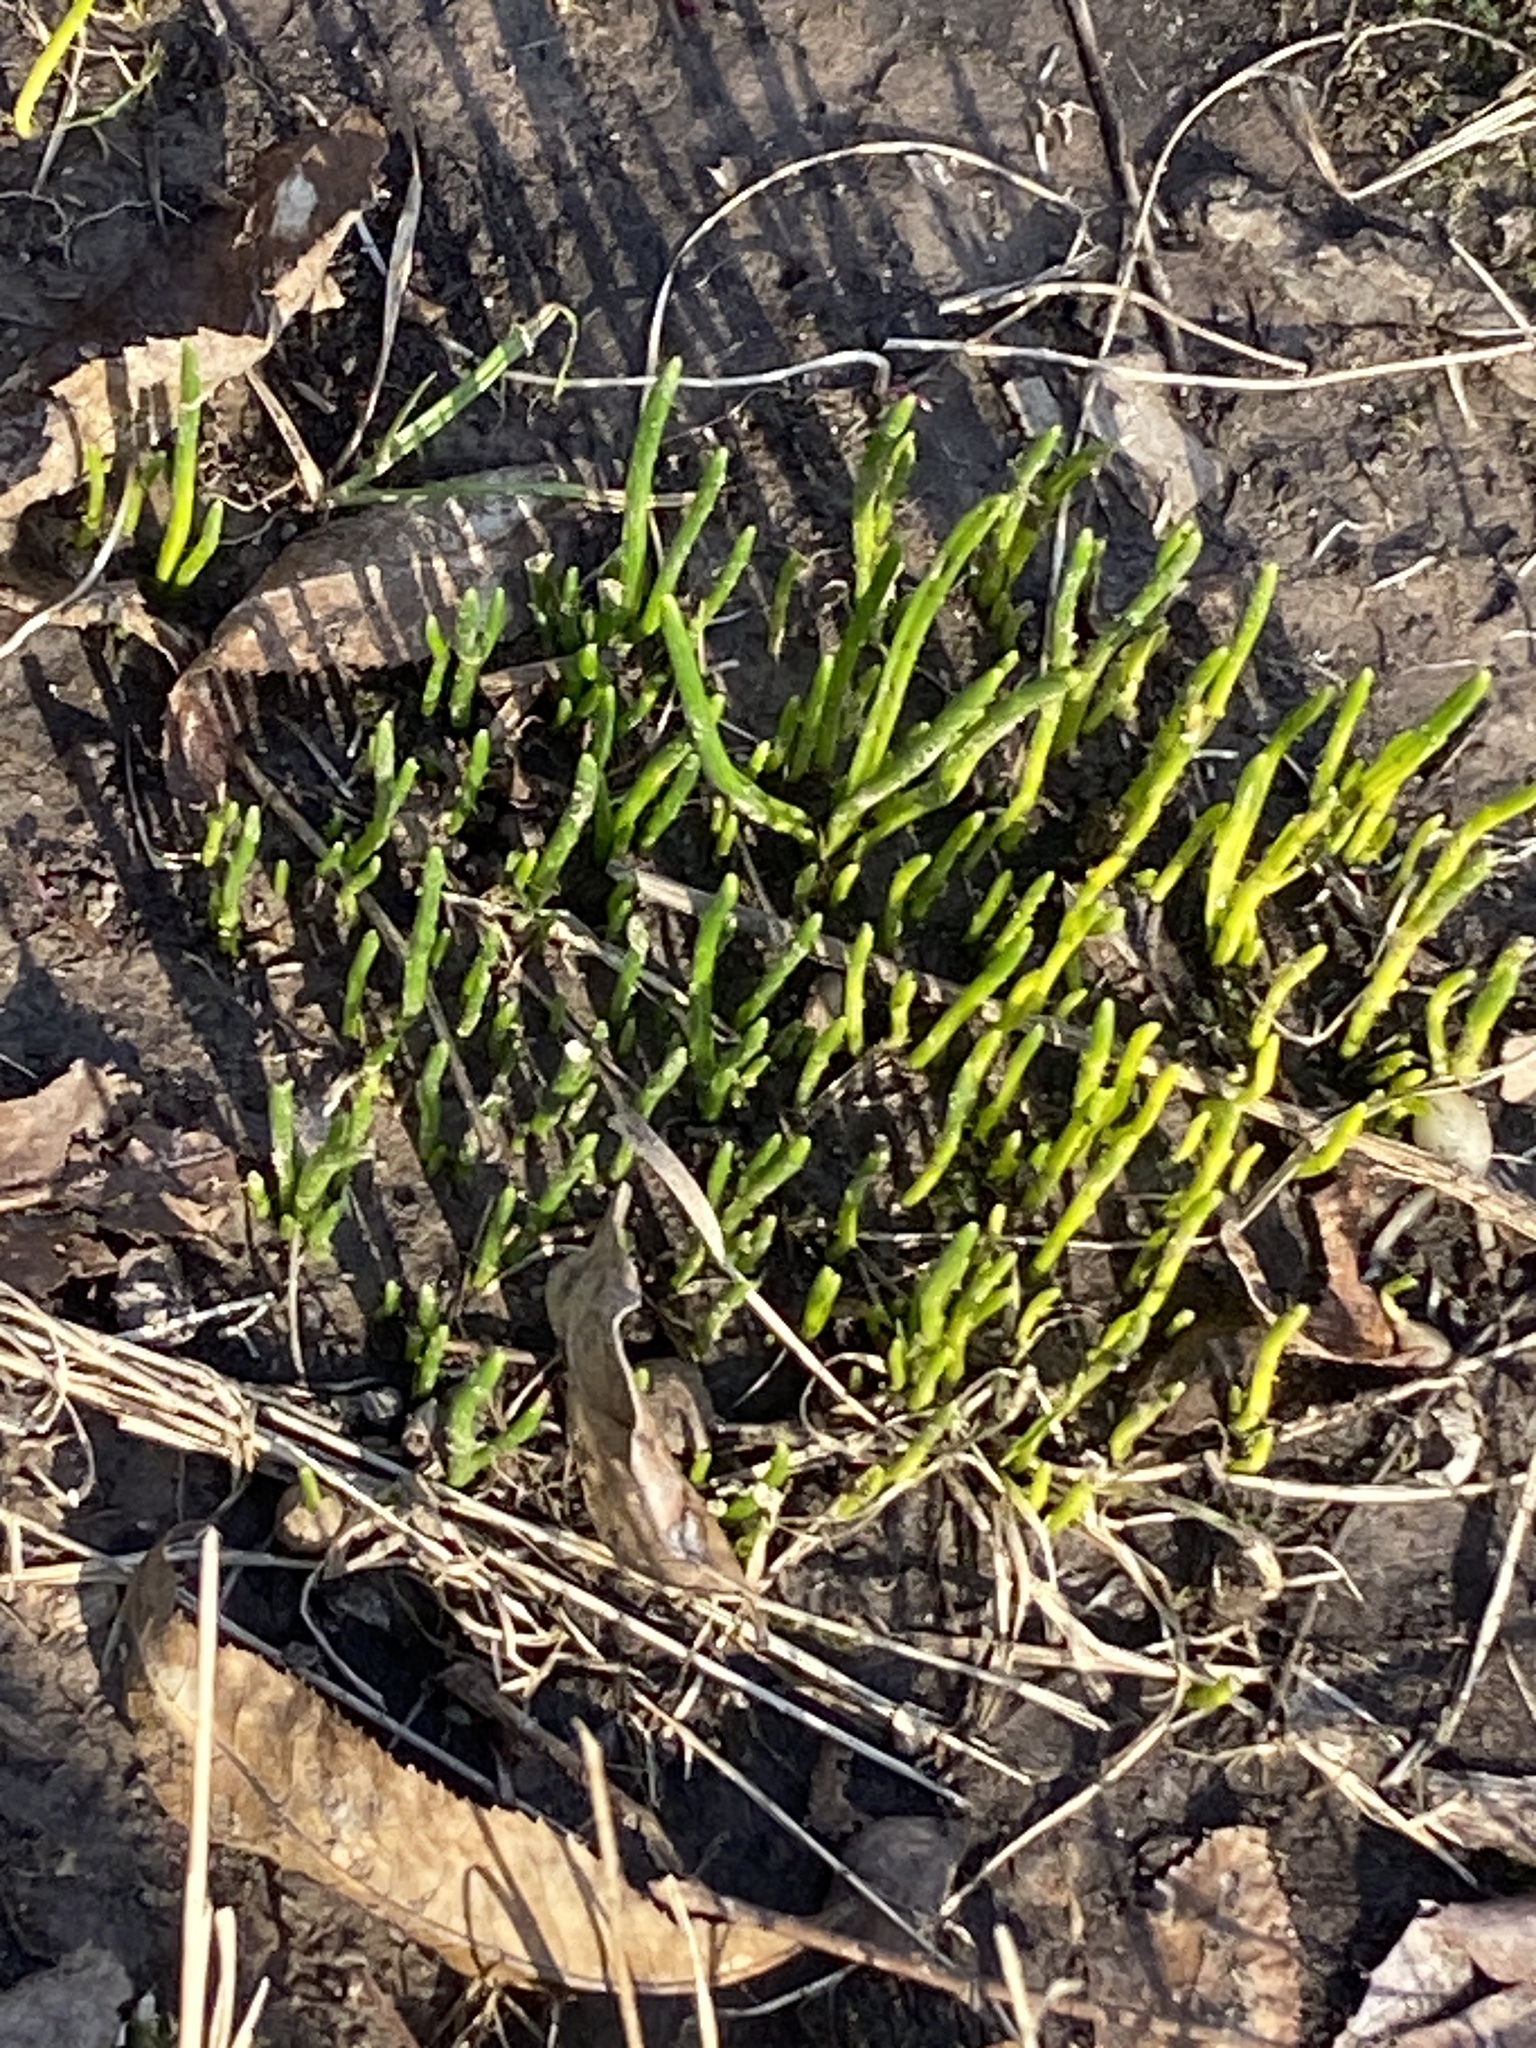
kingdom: Plantae
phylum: Tracheophyta
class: Liliopsida
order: Asparagales
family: Iridaceae
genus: Crocus
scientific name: Crocus
